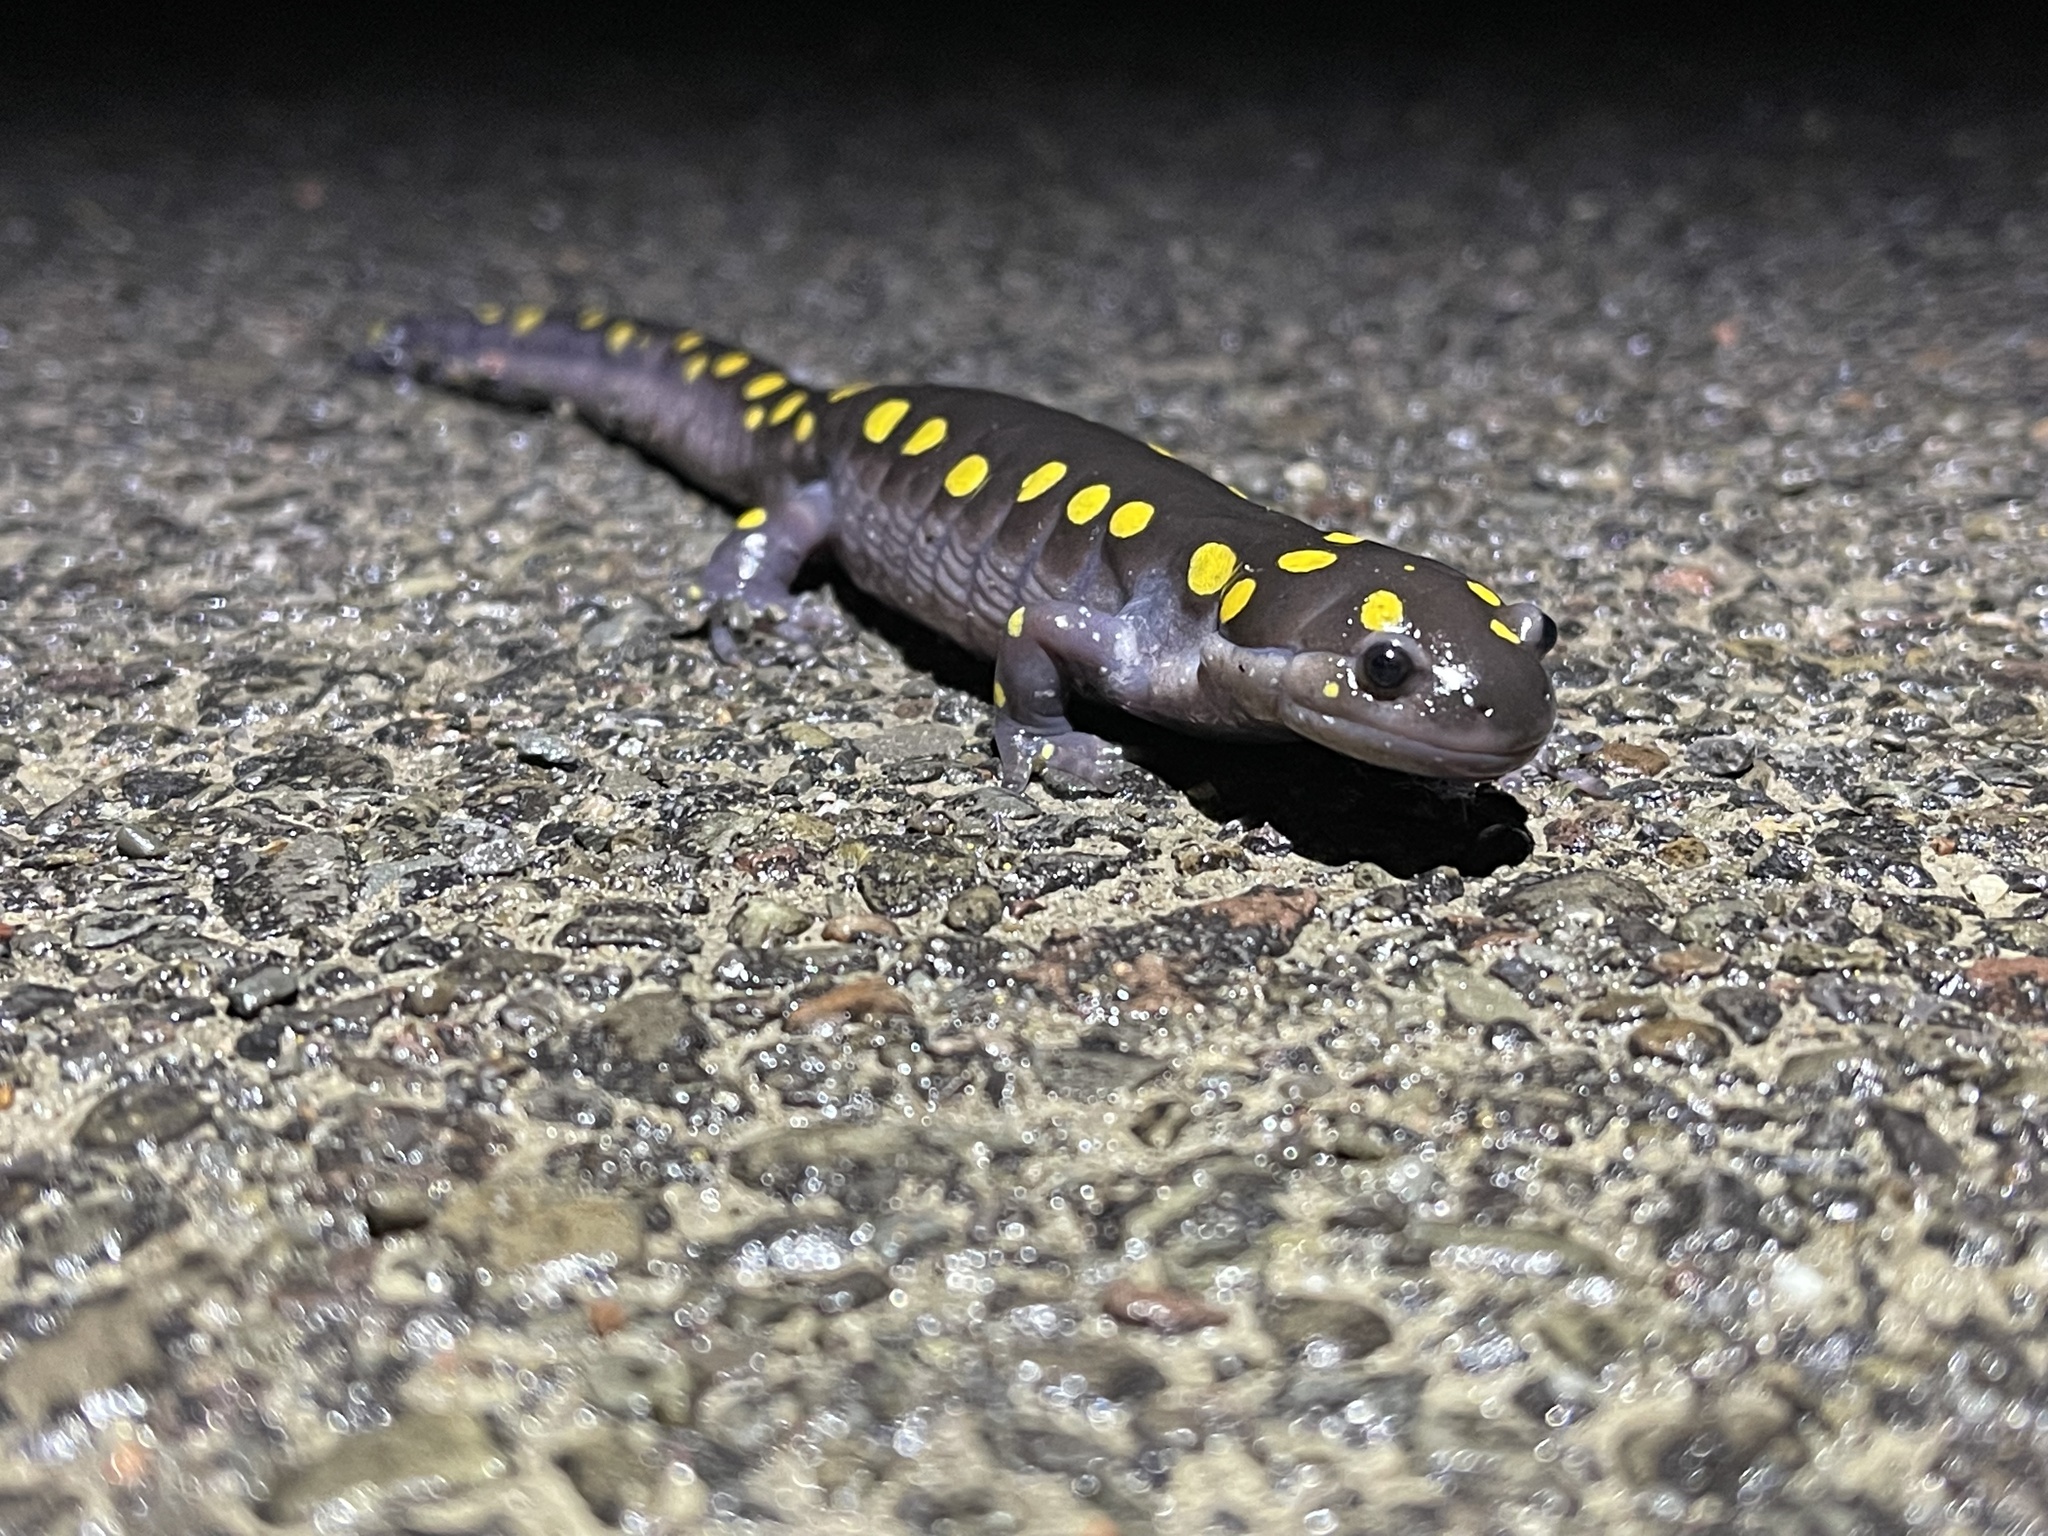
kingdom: Animalia
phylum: Chordata
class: Amphibia
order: Caudata
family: Ambystomatidae
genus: Ambystoma
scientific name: Ambystoma maculatum
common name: Spotted salamander
